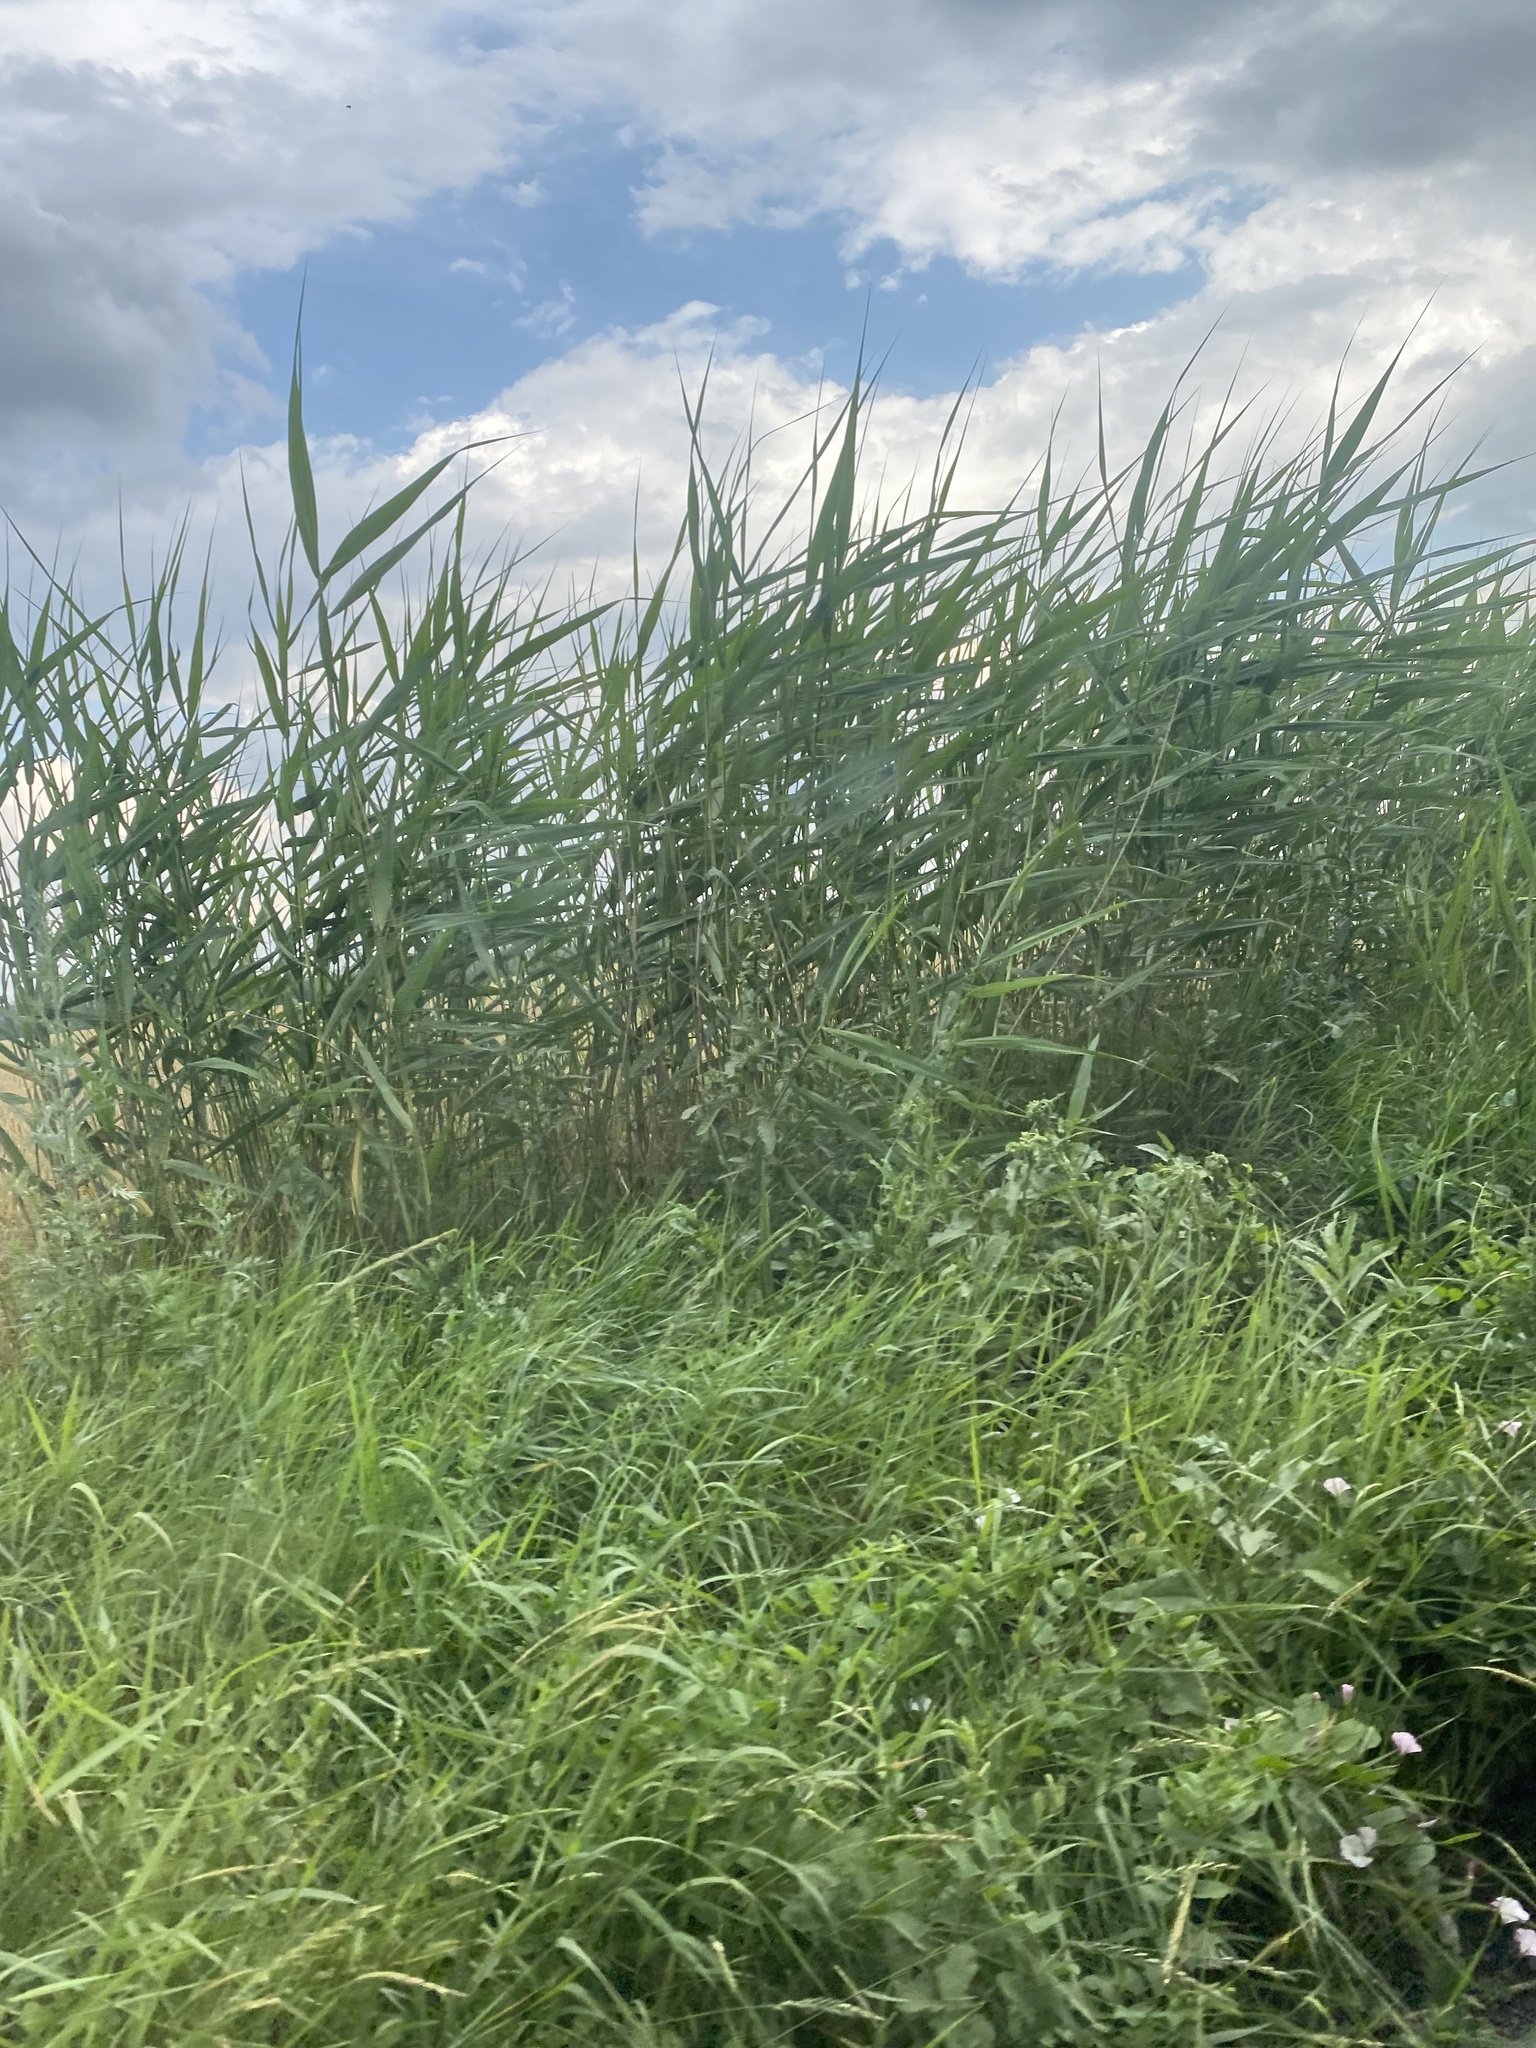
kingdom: Plantae
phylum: Tracheophyta
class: Liliopsida
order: Poales
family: Poaceae
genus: Phragmites
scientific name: Phragmites australis
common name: Common reed
